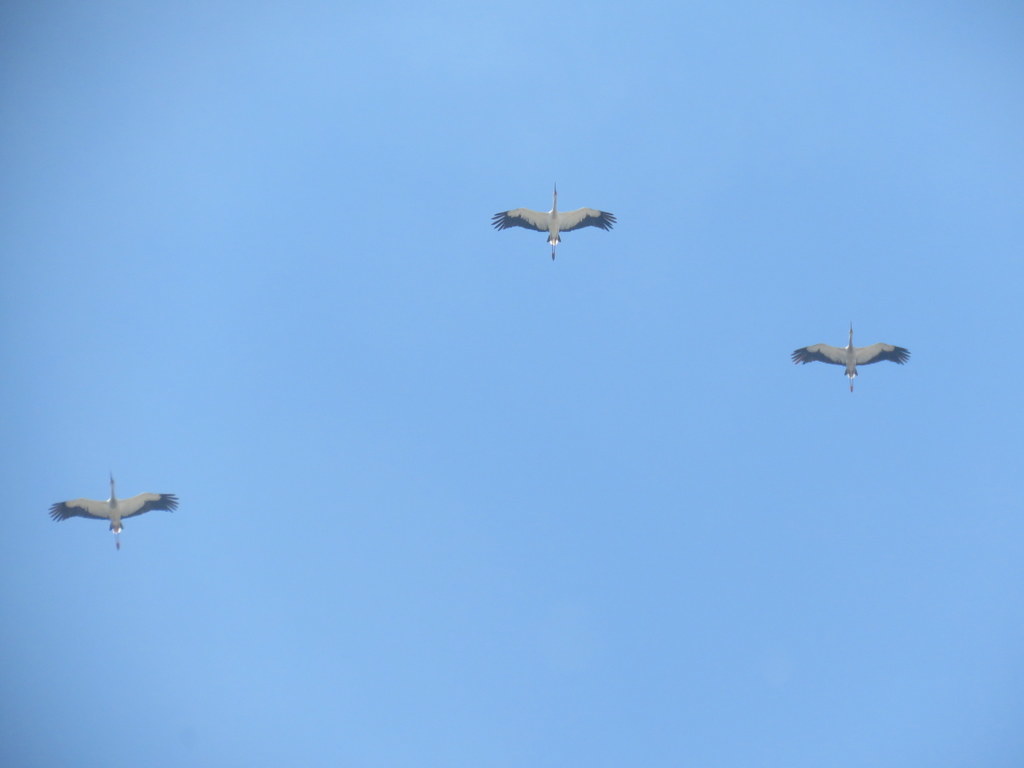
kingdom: Animalia
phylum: Chordata
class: Aves
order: Ciconiiformes
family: Ciconiidae
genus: Ciconia
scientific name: Ciconia maguari
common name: Maguari stork
